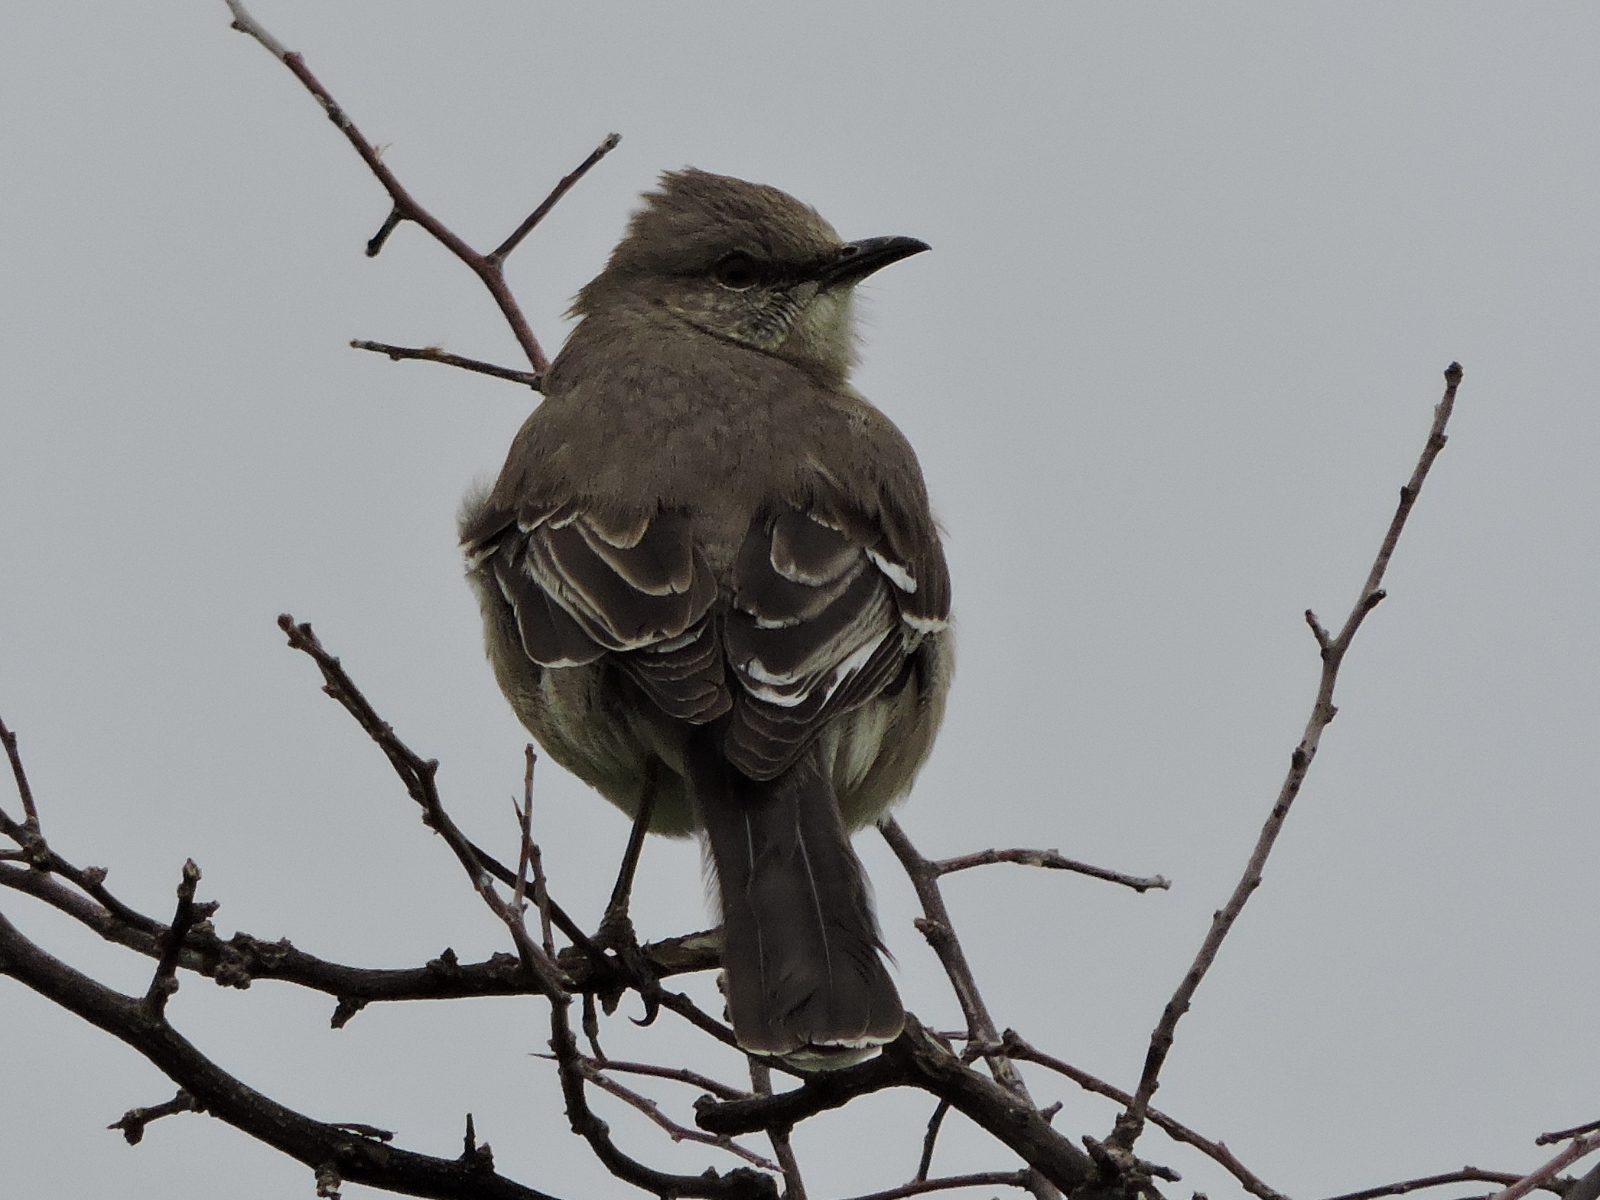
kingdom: Animalia
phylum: Chordata
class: Aves
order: Passeriformes
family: Mimidae
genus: Mimus
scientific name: Mimus polyglottos
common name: Northern mockingbird
